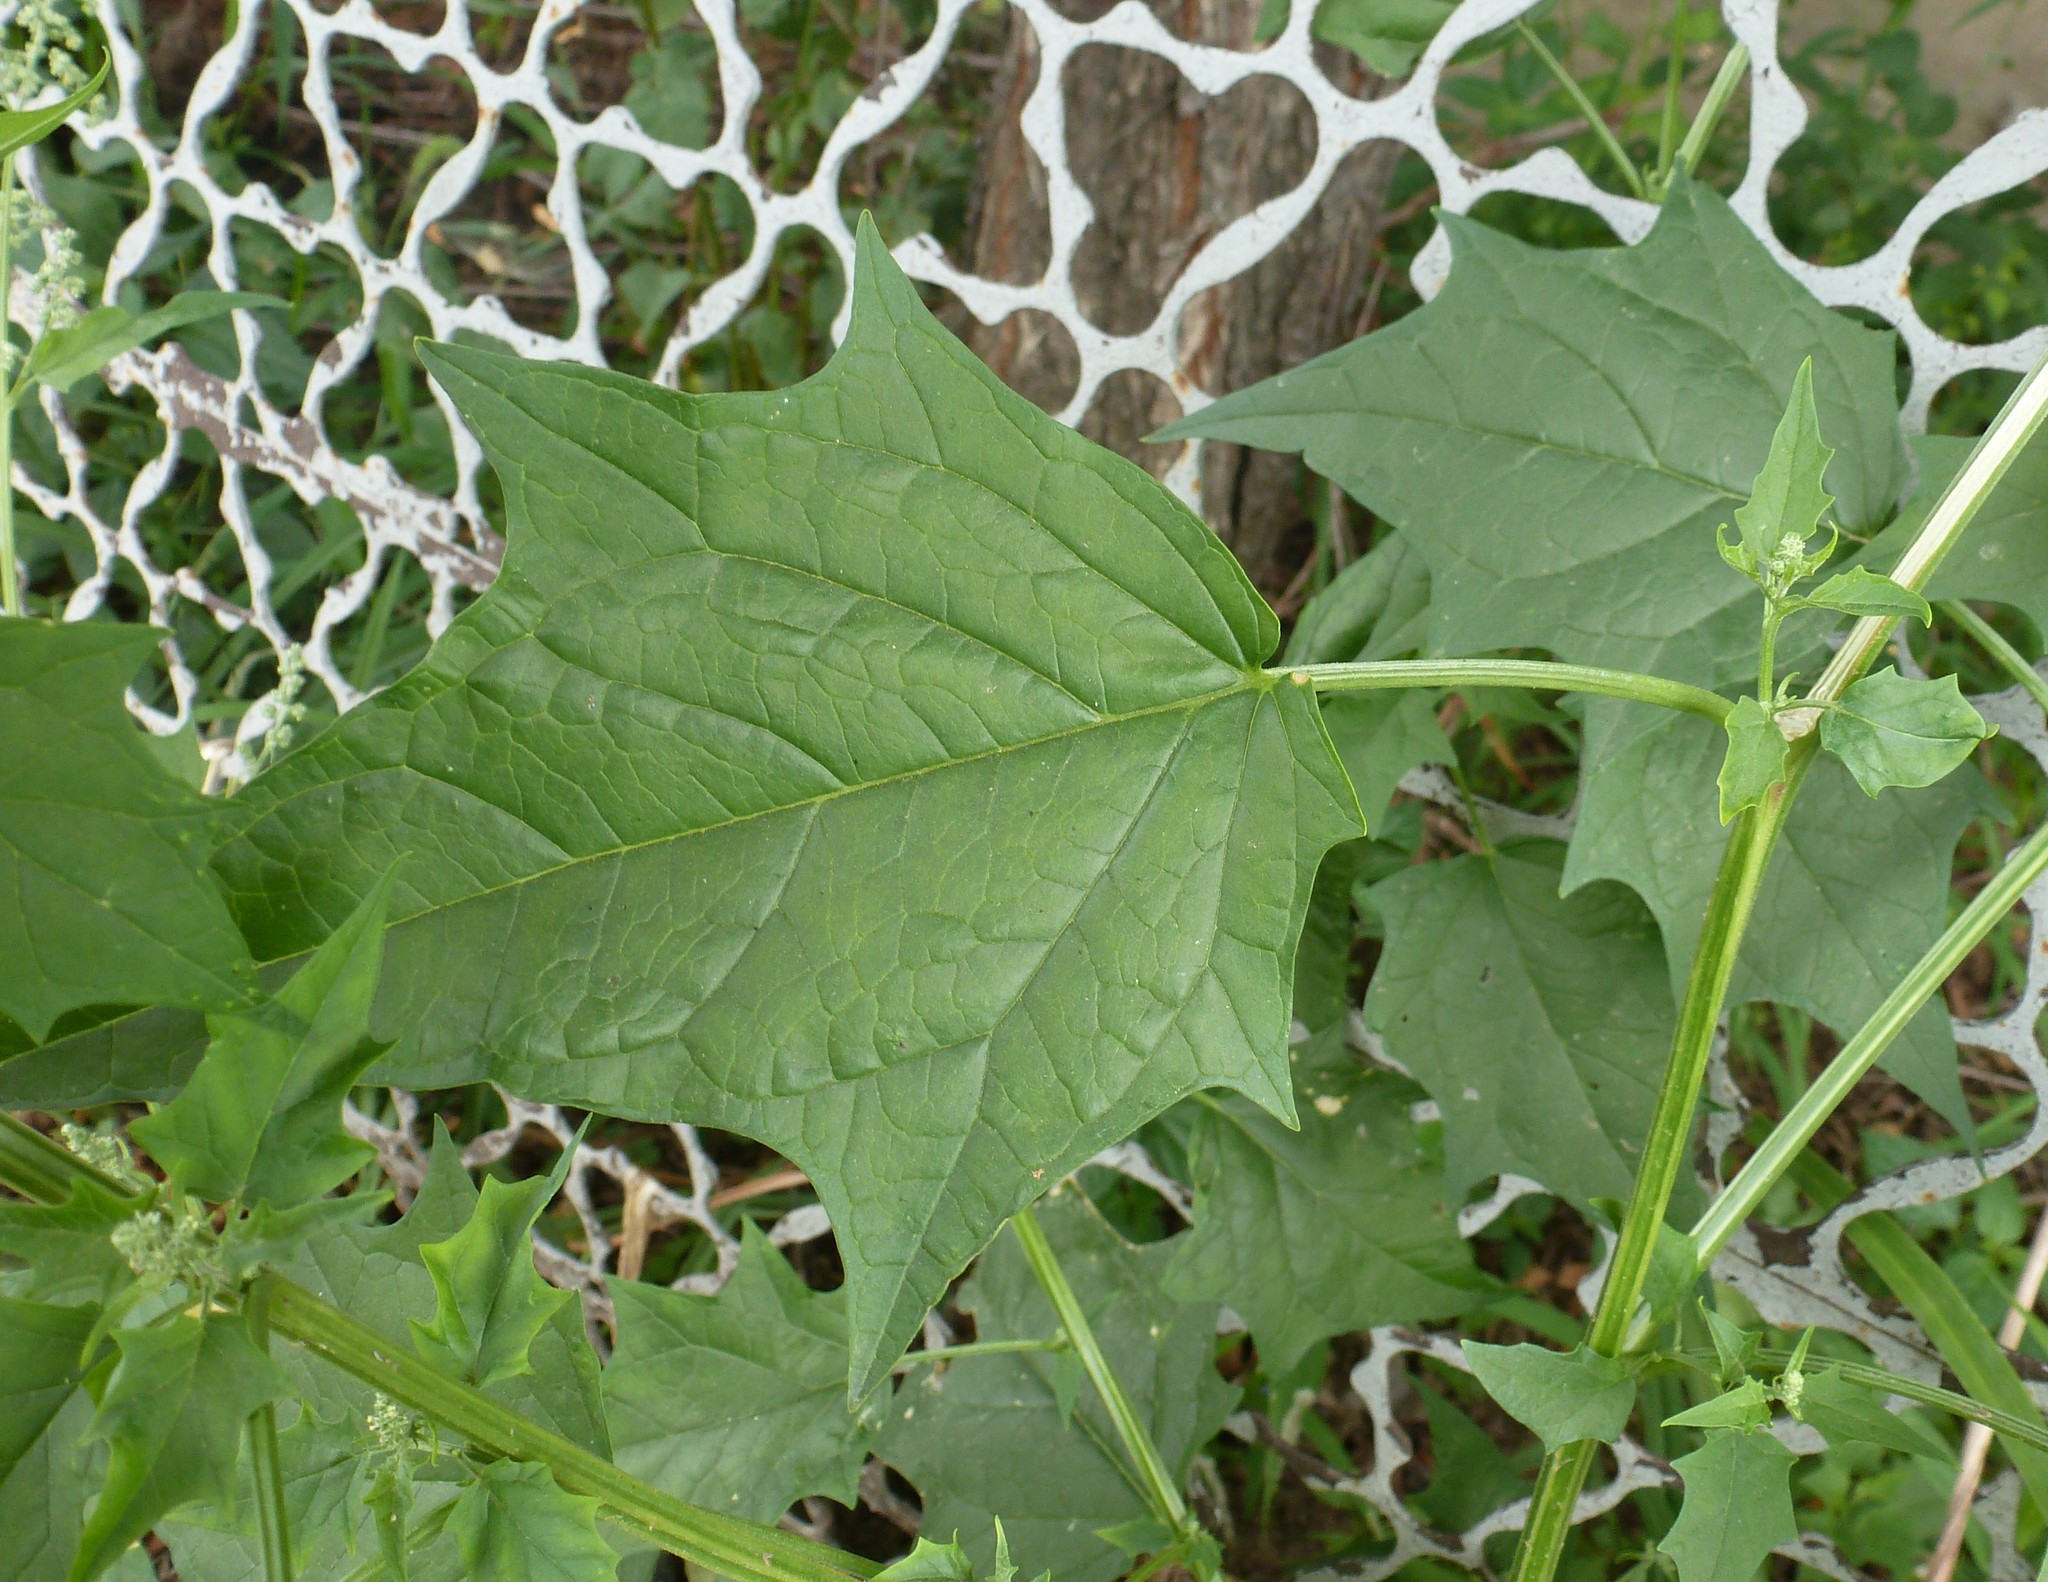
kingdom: Plantae
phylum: Tracheophyta
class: Magnoliopsida
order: Caryophyllales
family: Amaranthaceae
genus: Chenopodiastrum
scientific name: Chenopodiastrum hybridum
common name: Mapleleaf goosefoot
